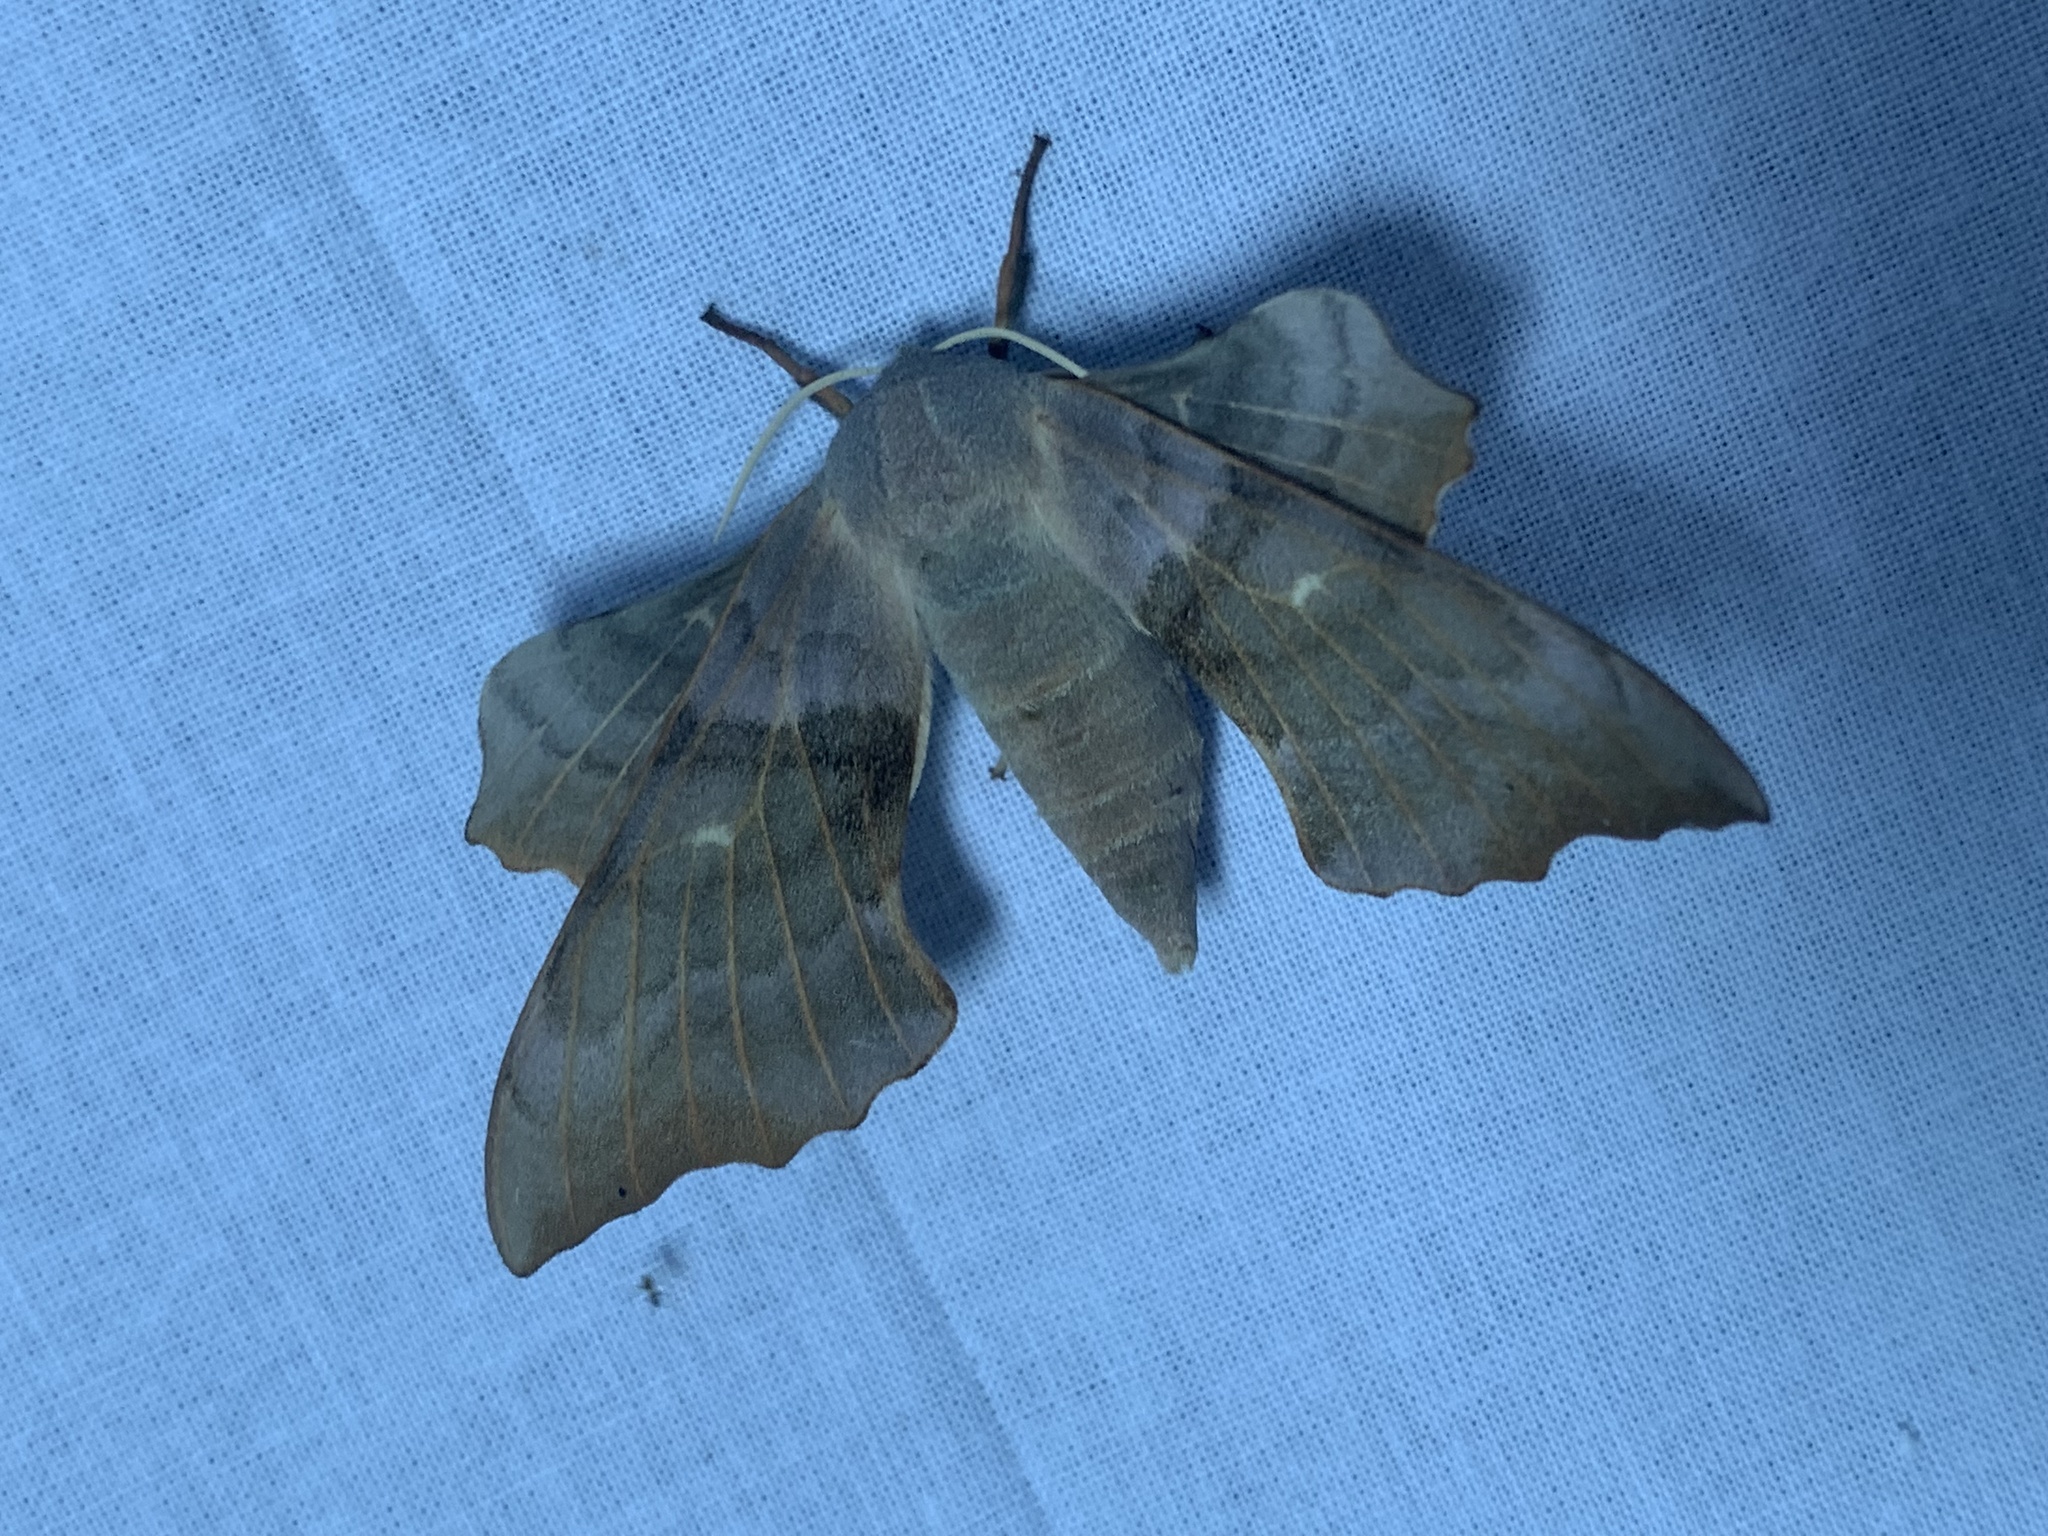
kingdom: Animalia
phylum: Arthropoda
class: Insecta
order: Lepidoptera
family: Sphingidae
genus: Laothoe
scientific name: Laothoe populi
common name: Poplar hawk-moth
